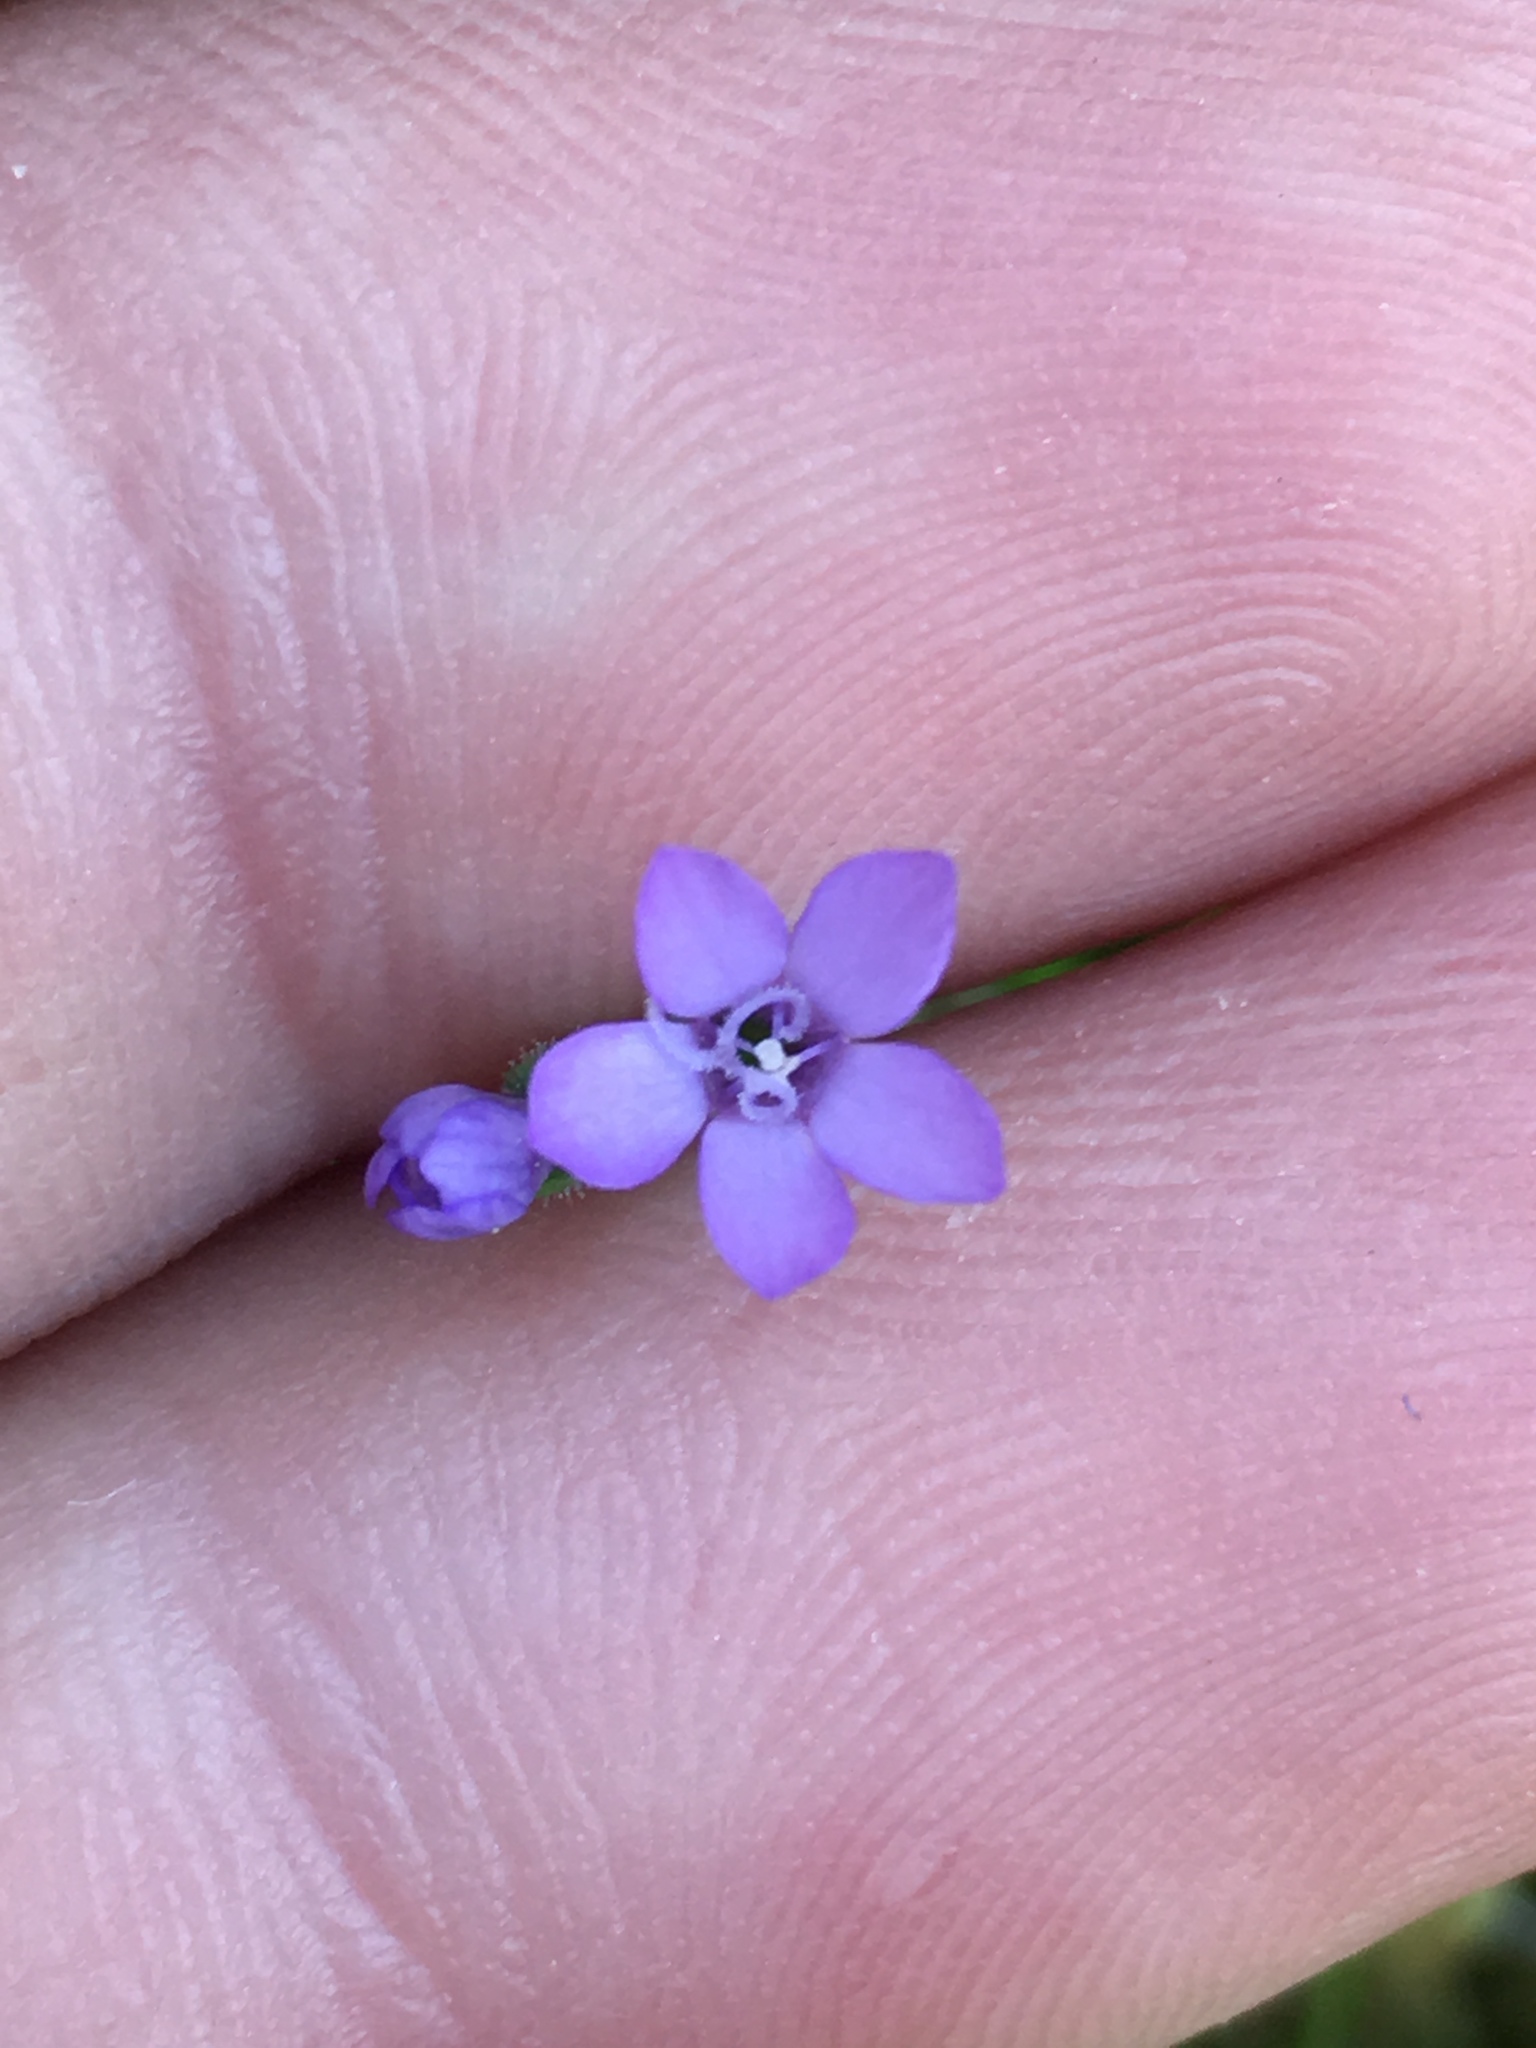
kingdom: Plantae
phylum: Tracheophyta
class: Magnoliopsida
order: Ericales
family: Polemoniaceae
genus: Gilia
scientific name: Gilia nevinii
